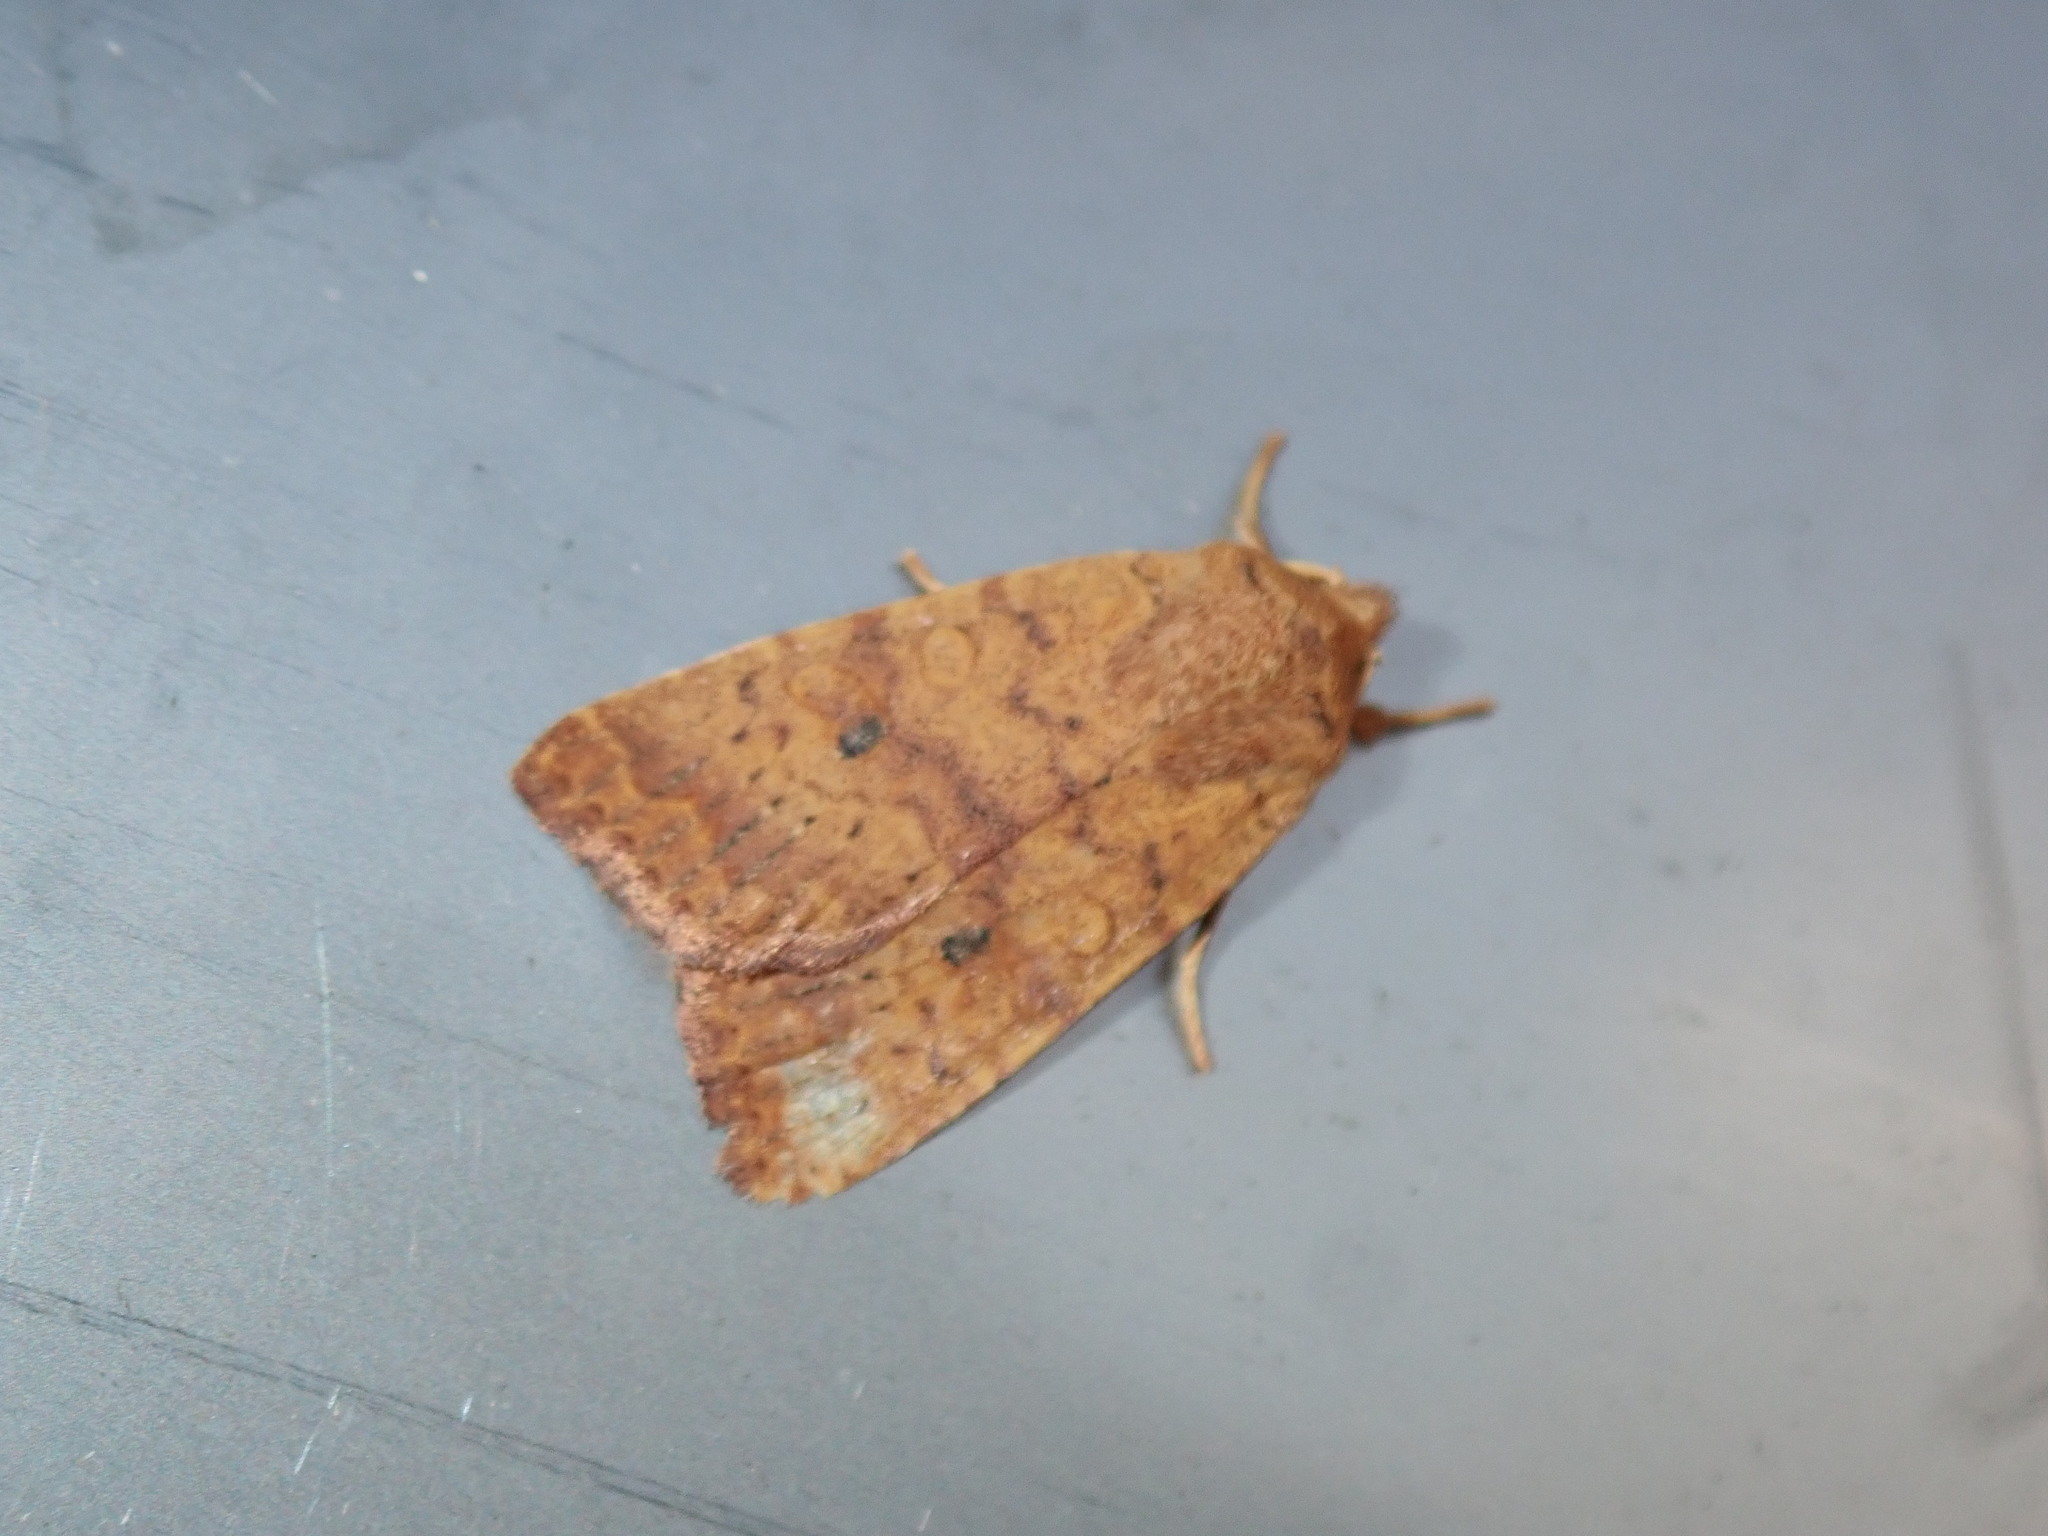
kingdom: Animalia
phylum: Arthropoda
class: Insecta
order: Lepidoptera
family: Noctuidae
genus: Agrochola
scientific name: Agrochola bicolorago
